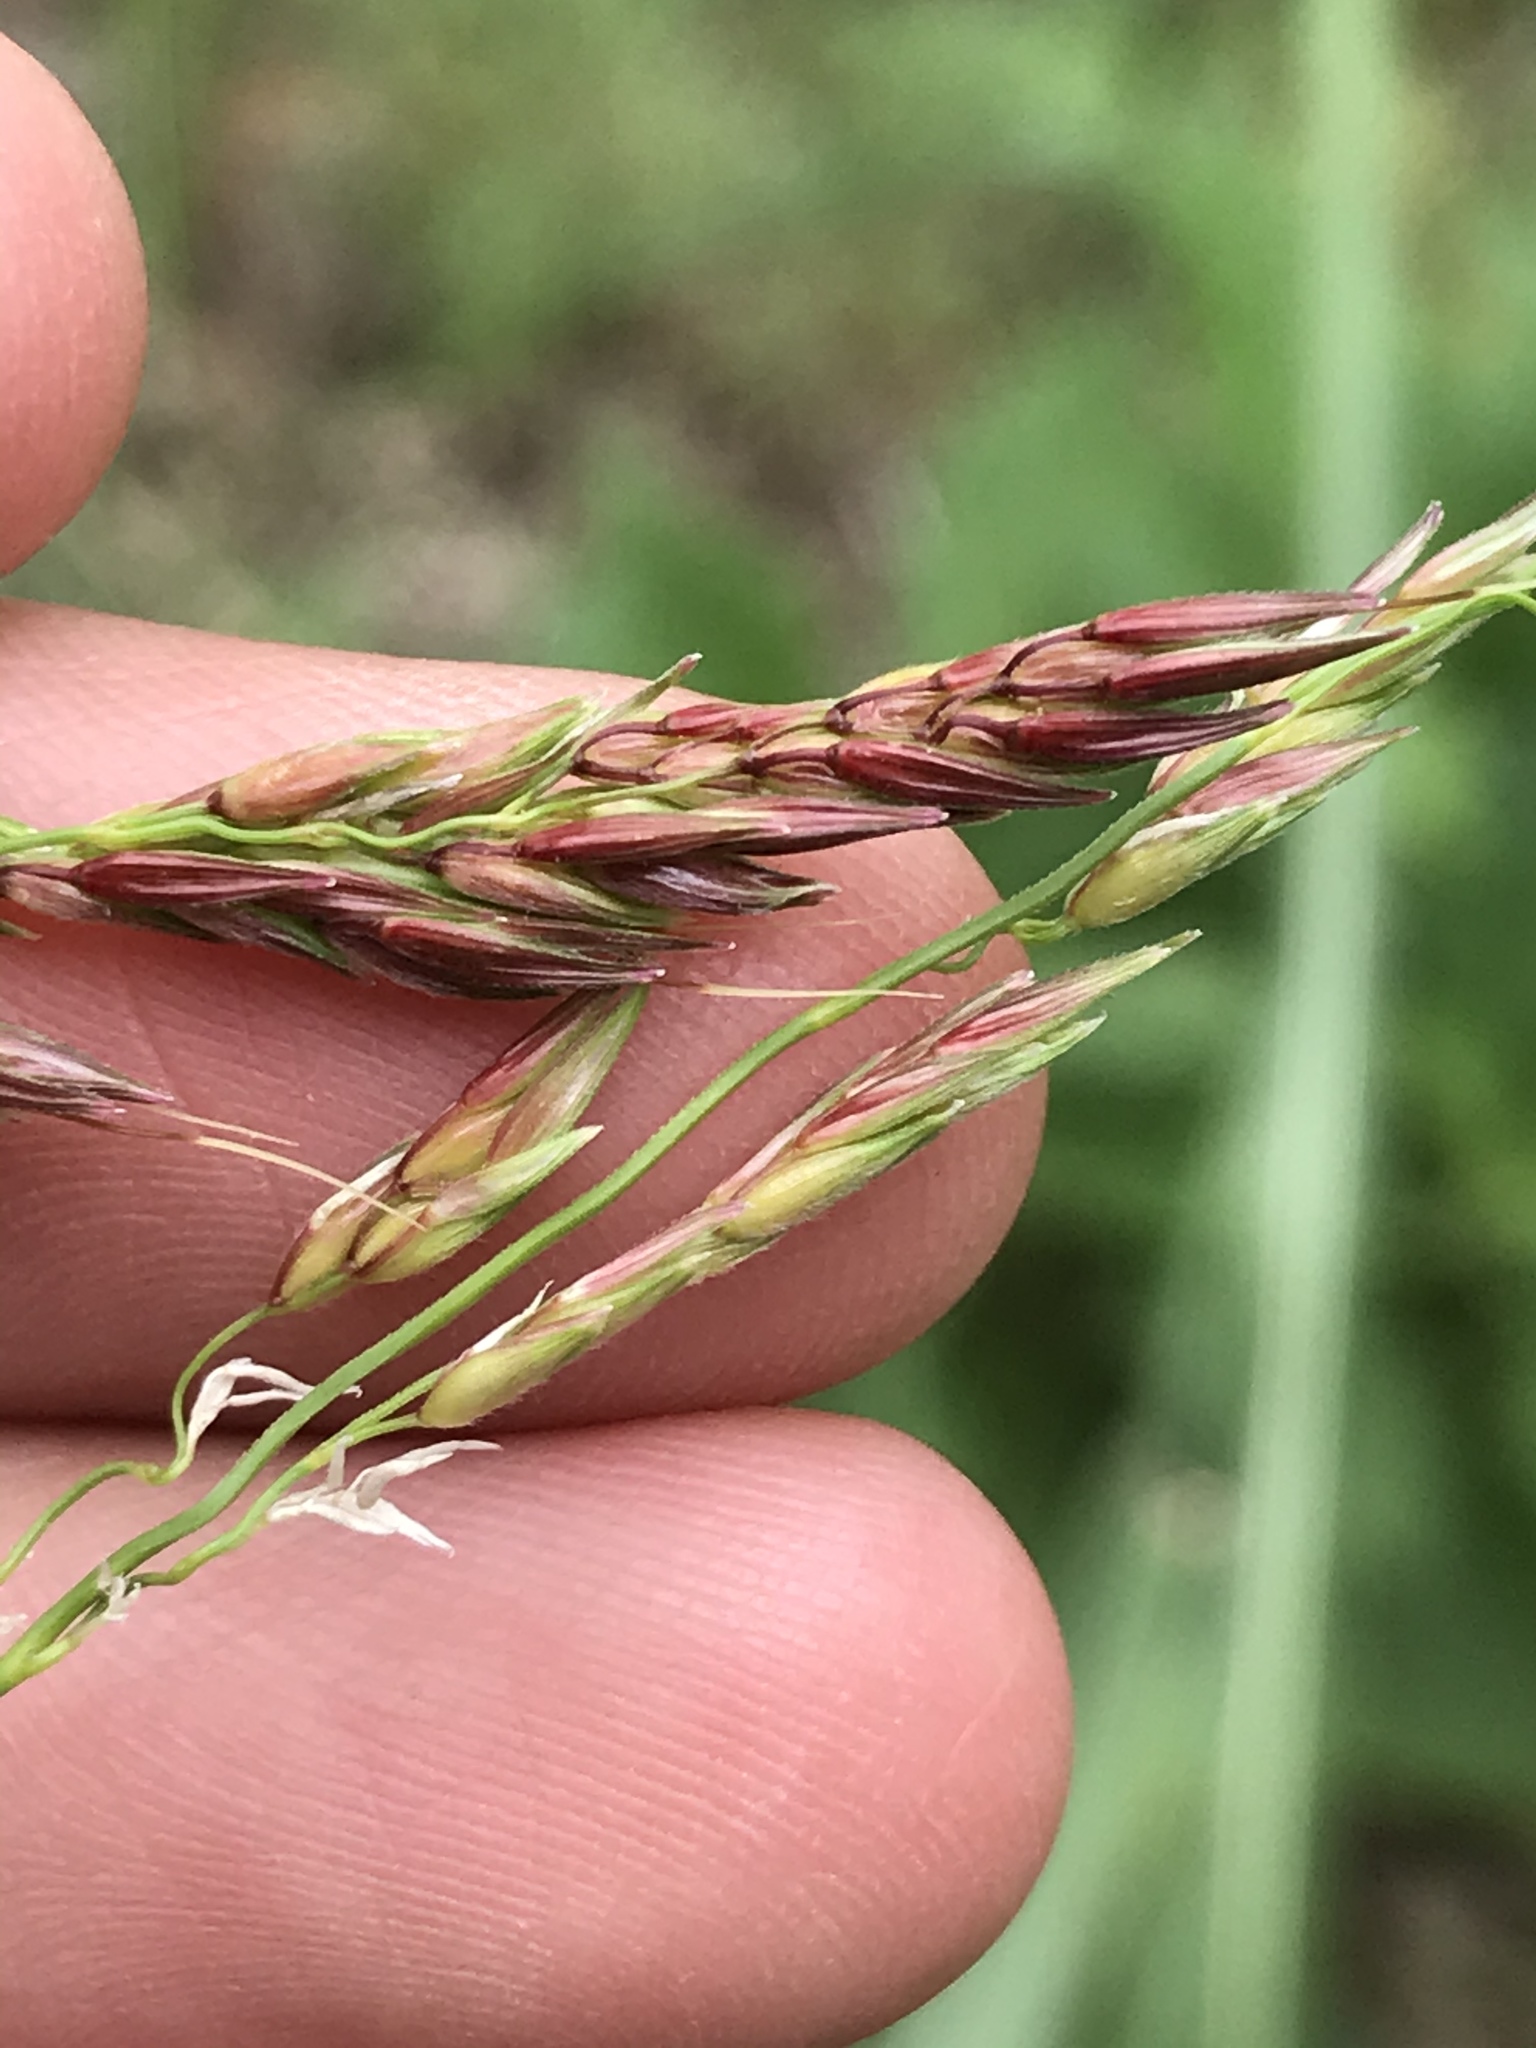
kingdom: Plantae
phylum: Tracheophyta
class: Liliopsida
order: Poales
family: Poaceae
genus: Sorghum
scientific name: Sorghum halepense
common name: Johnson-grass
